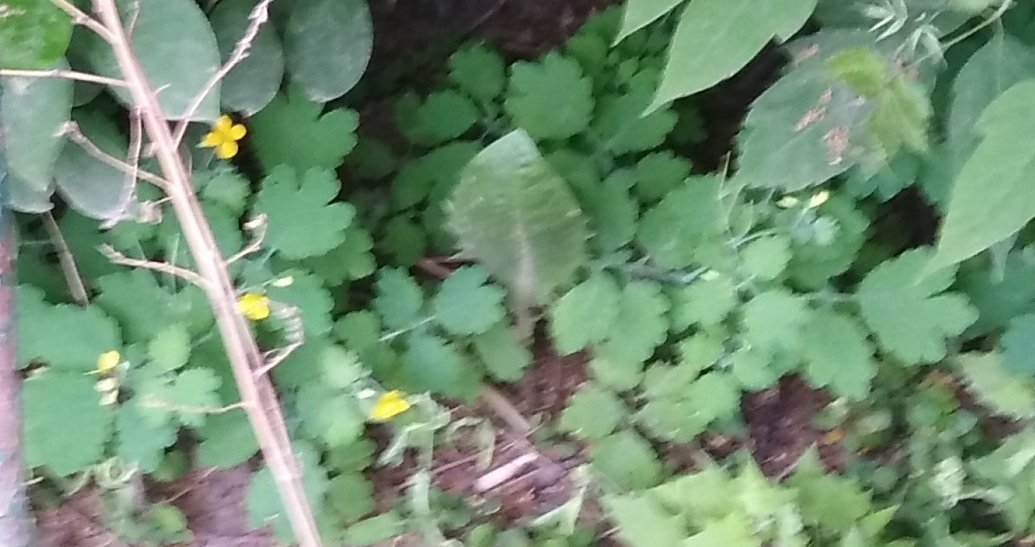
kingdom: Plantae
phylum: Tracheophyta
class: Magnoliopsida
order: Ranunculales
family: Papaveraceae
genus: Chelidonium
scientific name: Chelidonium majus
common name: Greater celandine
